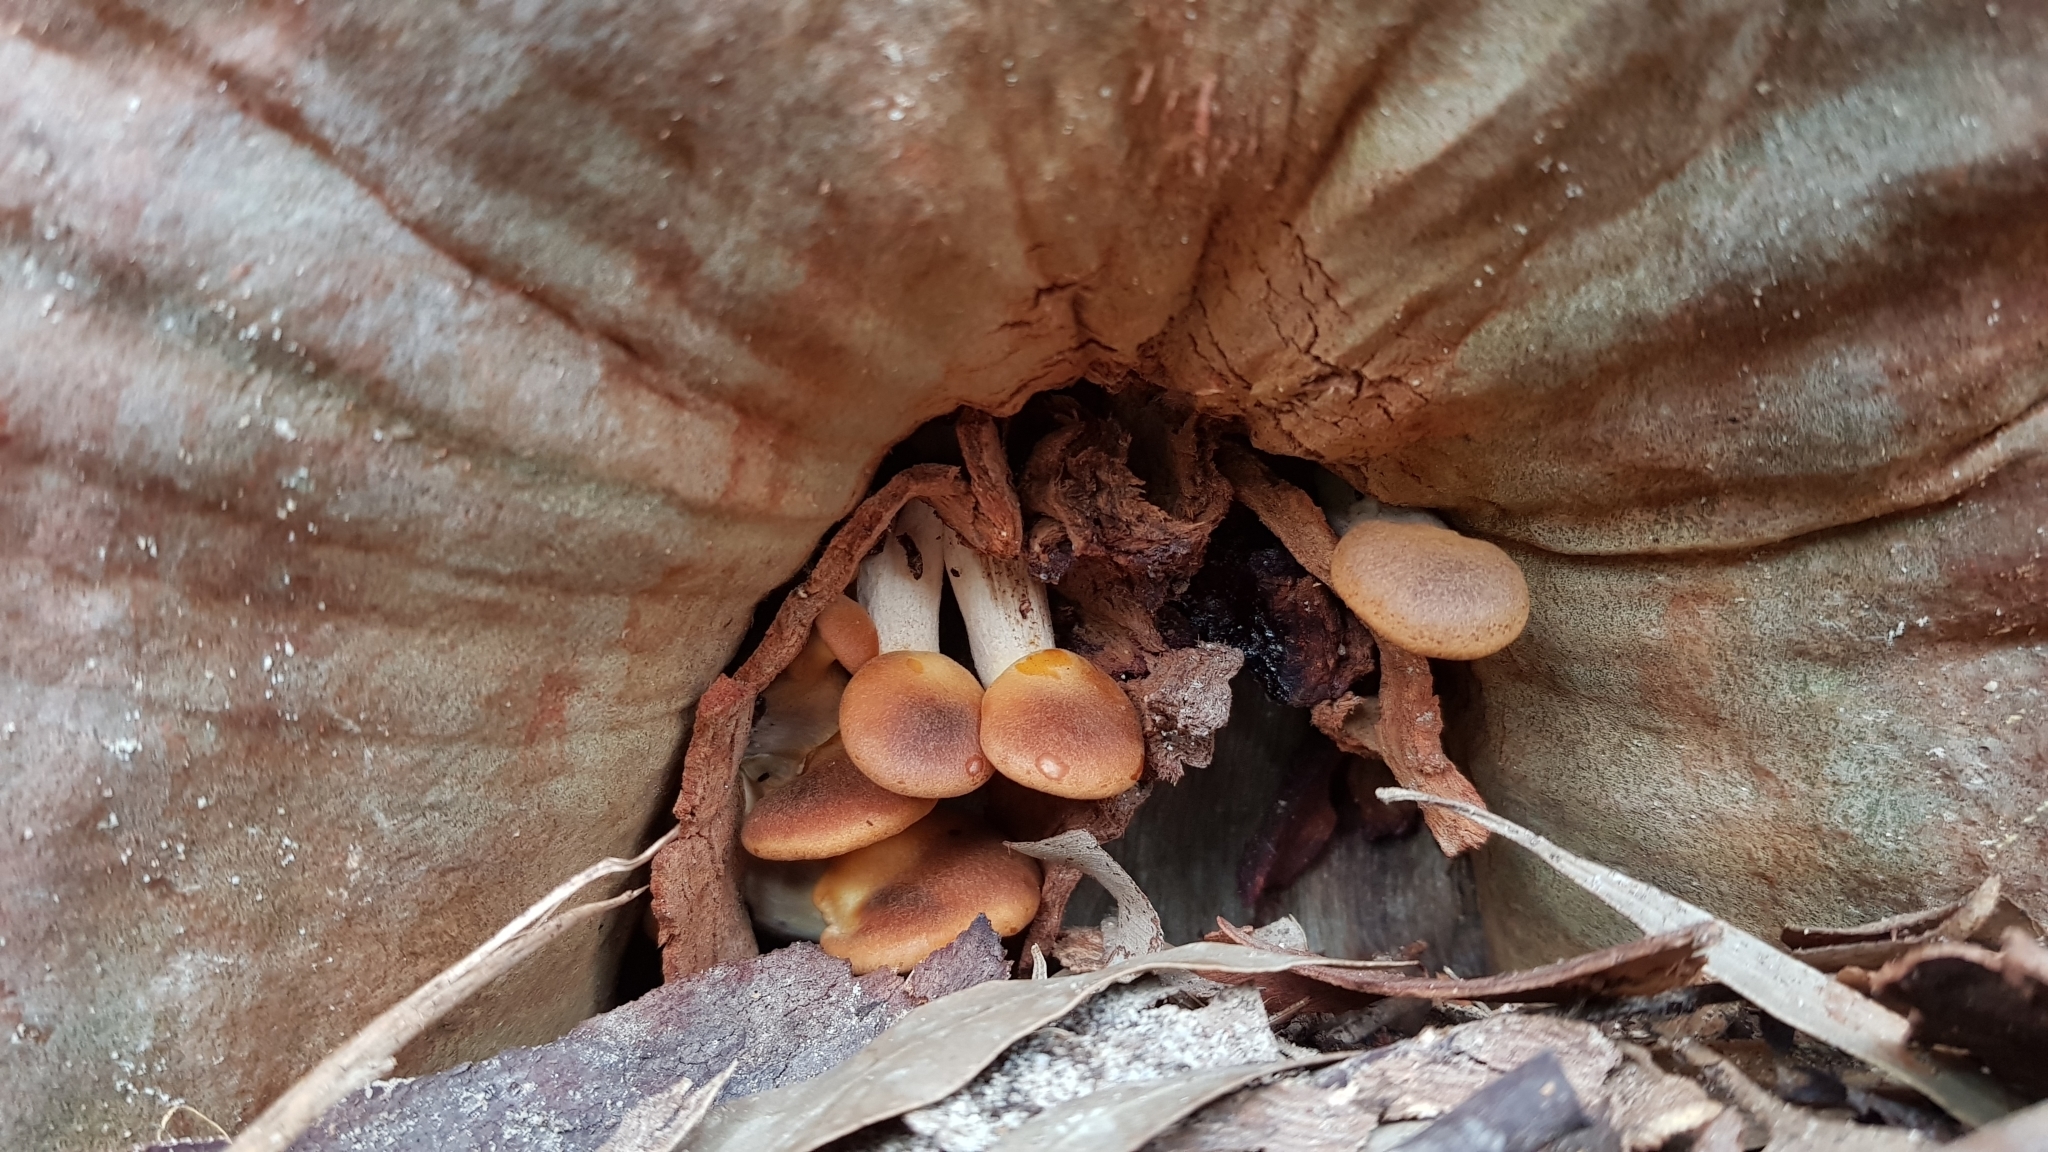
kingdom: Fungi
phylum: Basidiomycota
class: Agaricomycetes
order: Agaricales
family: Omphalotaceae
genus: Omphalotus
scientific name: Omphalotus nidiformis
